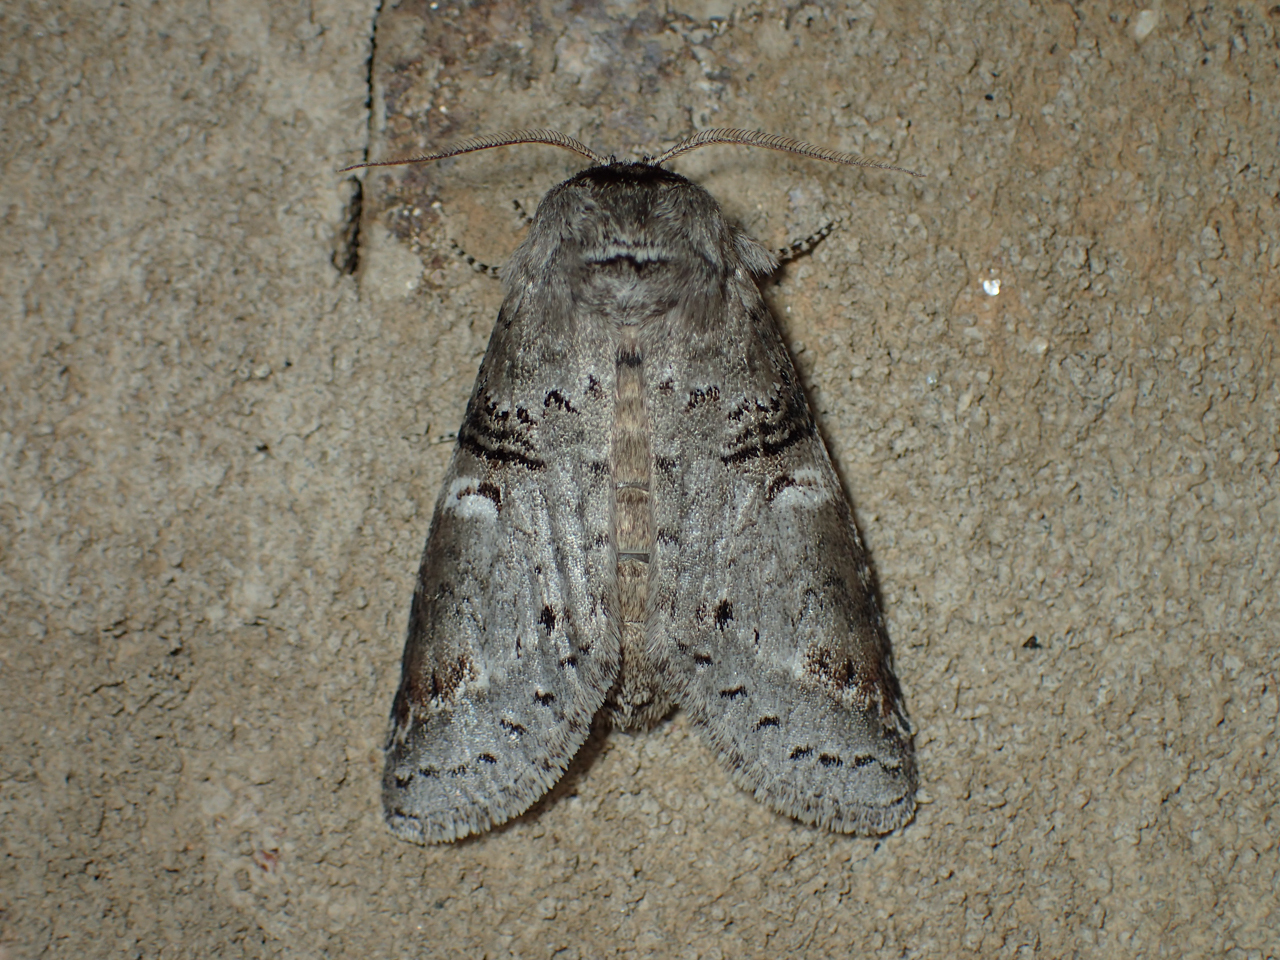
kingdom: Animalia
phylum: Arthropoda
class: Insecta
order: Lepidoptera
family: Notodontidae
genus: Ellida
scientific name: Ellida caniplaga
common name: Linden prominent
